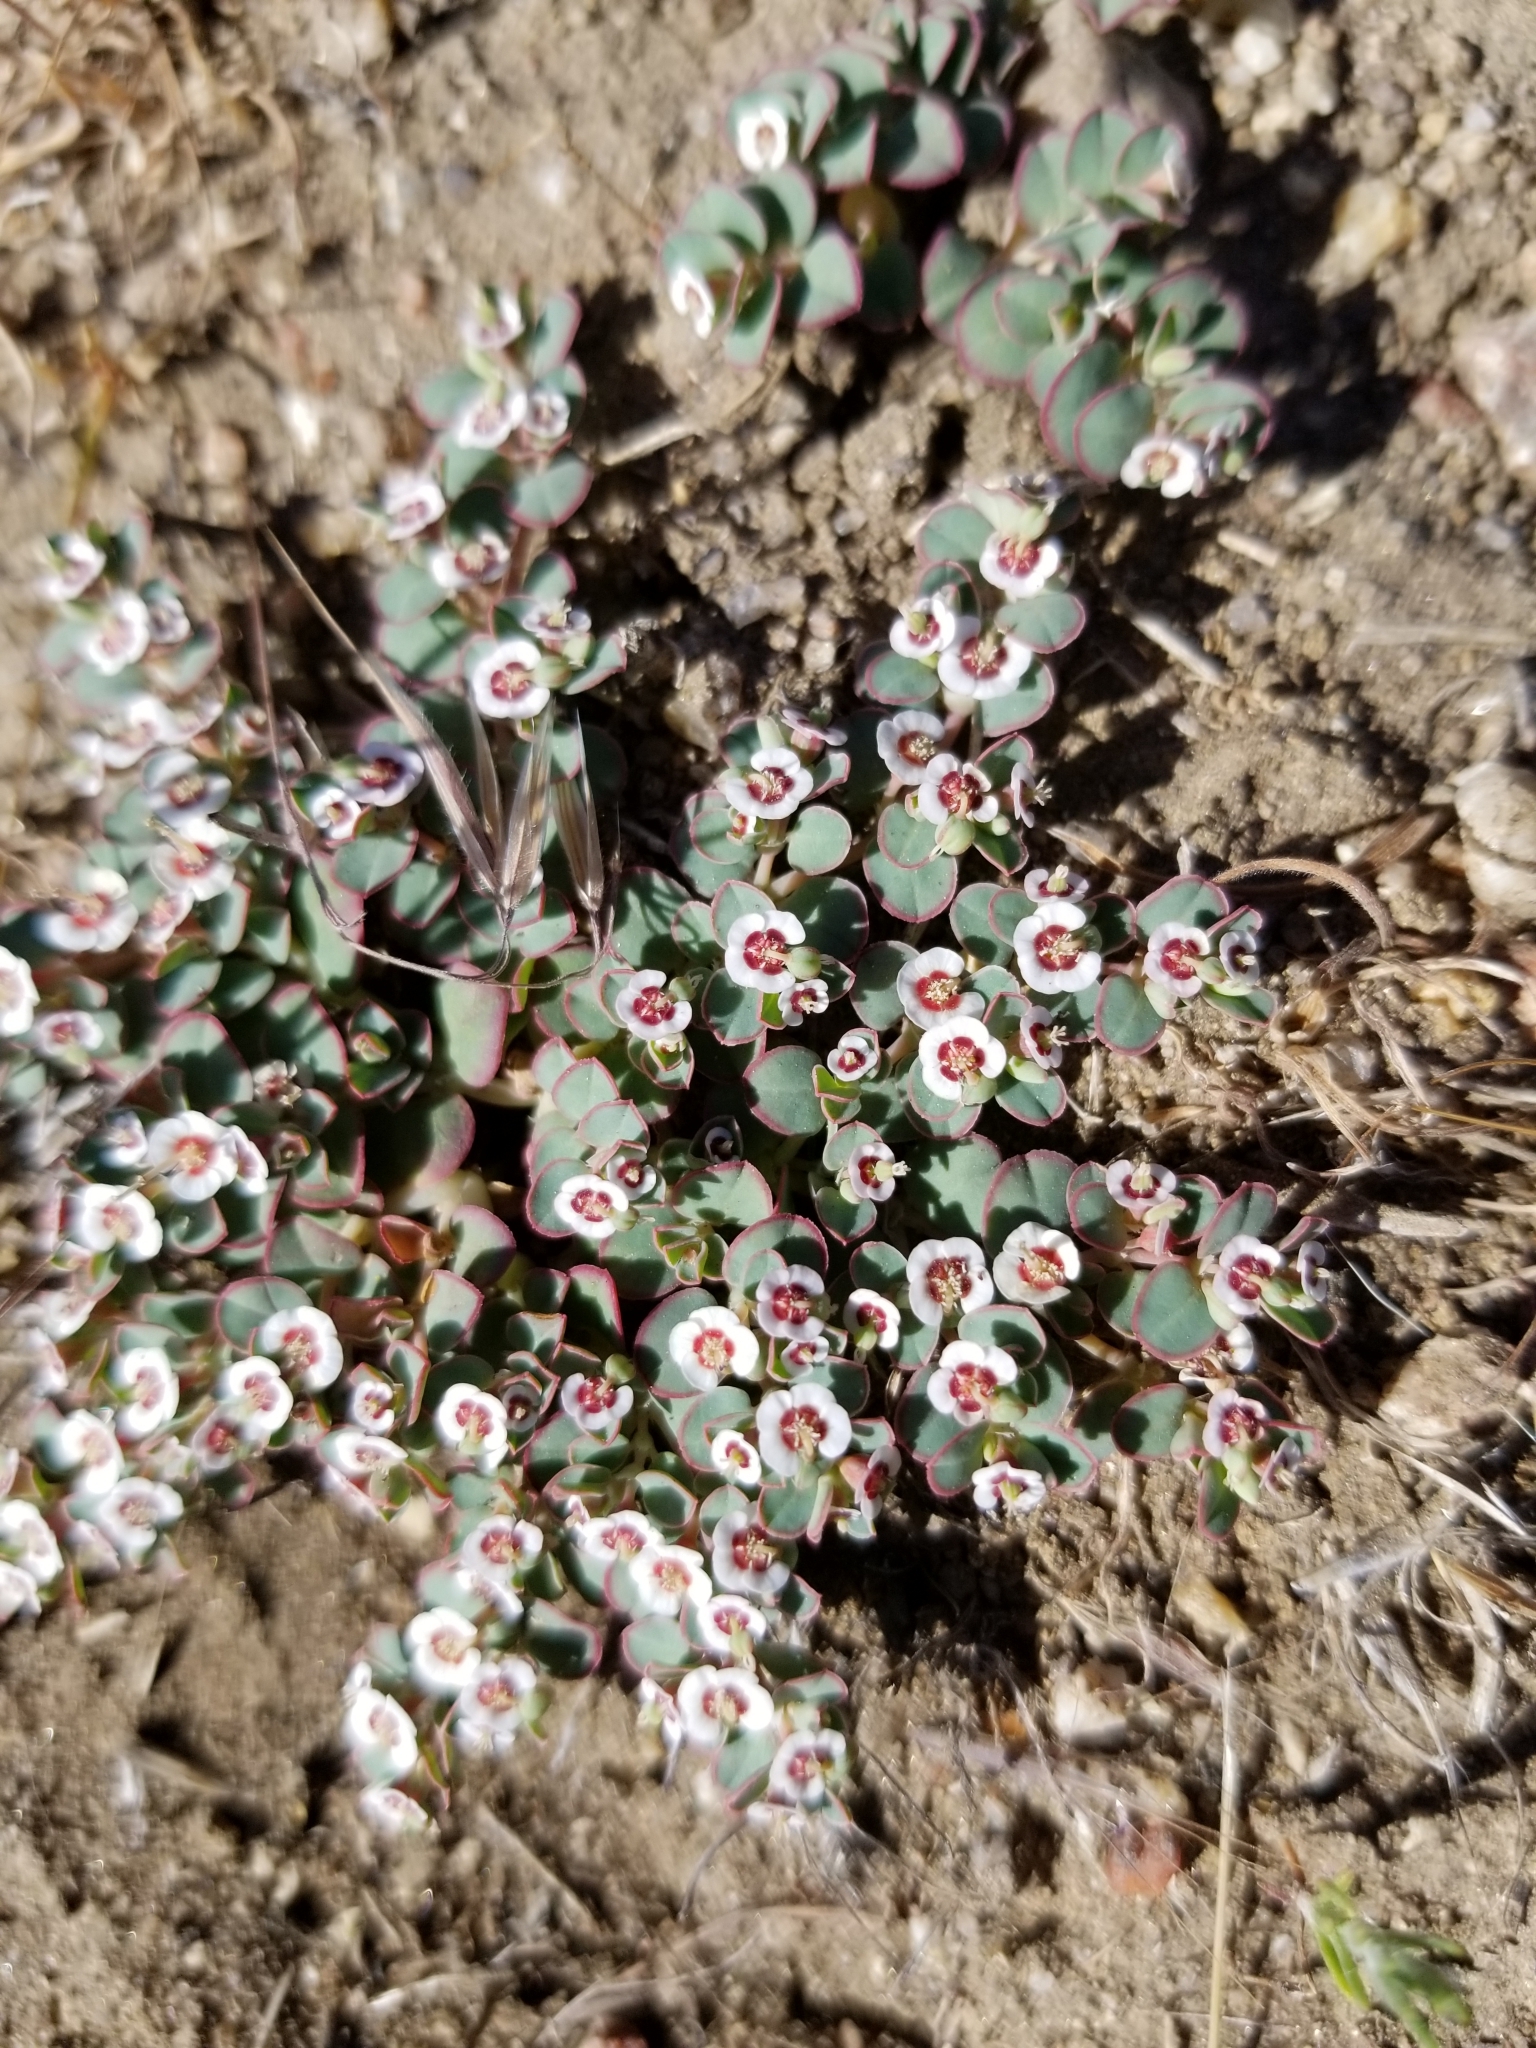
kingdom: Plantae
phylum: Tracheophyta
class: Magnoliopsida
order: Malpighiales
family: Euphorbiaceae
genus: Euphorbia
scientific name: Euphorbia albomarginata
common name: Whitemargin sandmat
